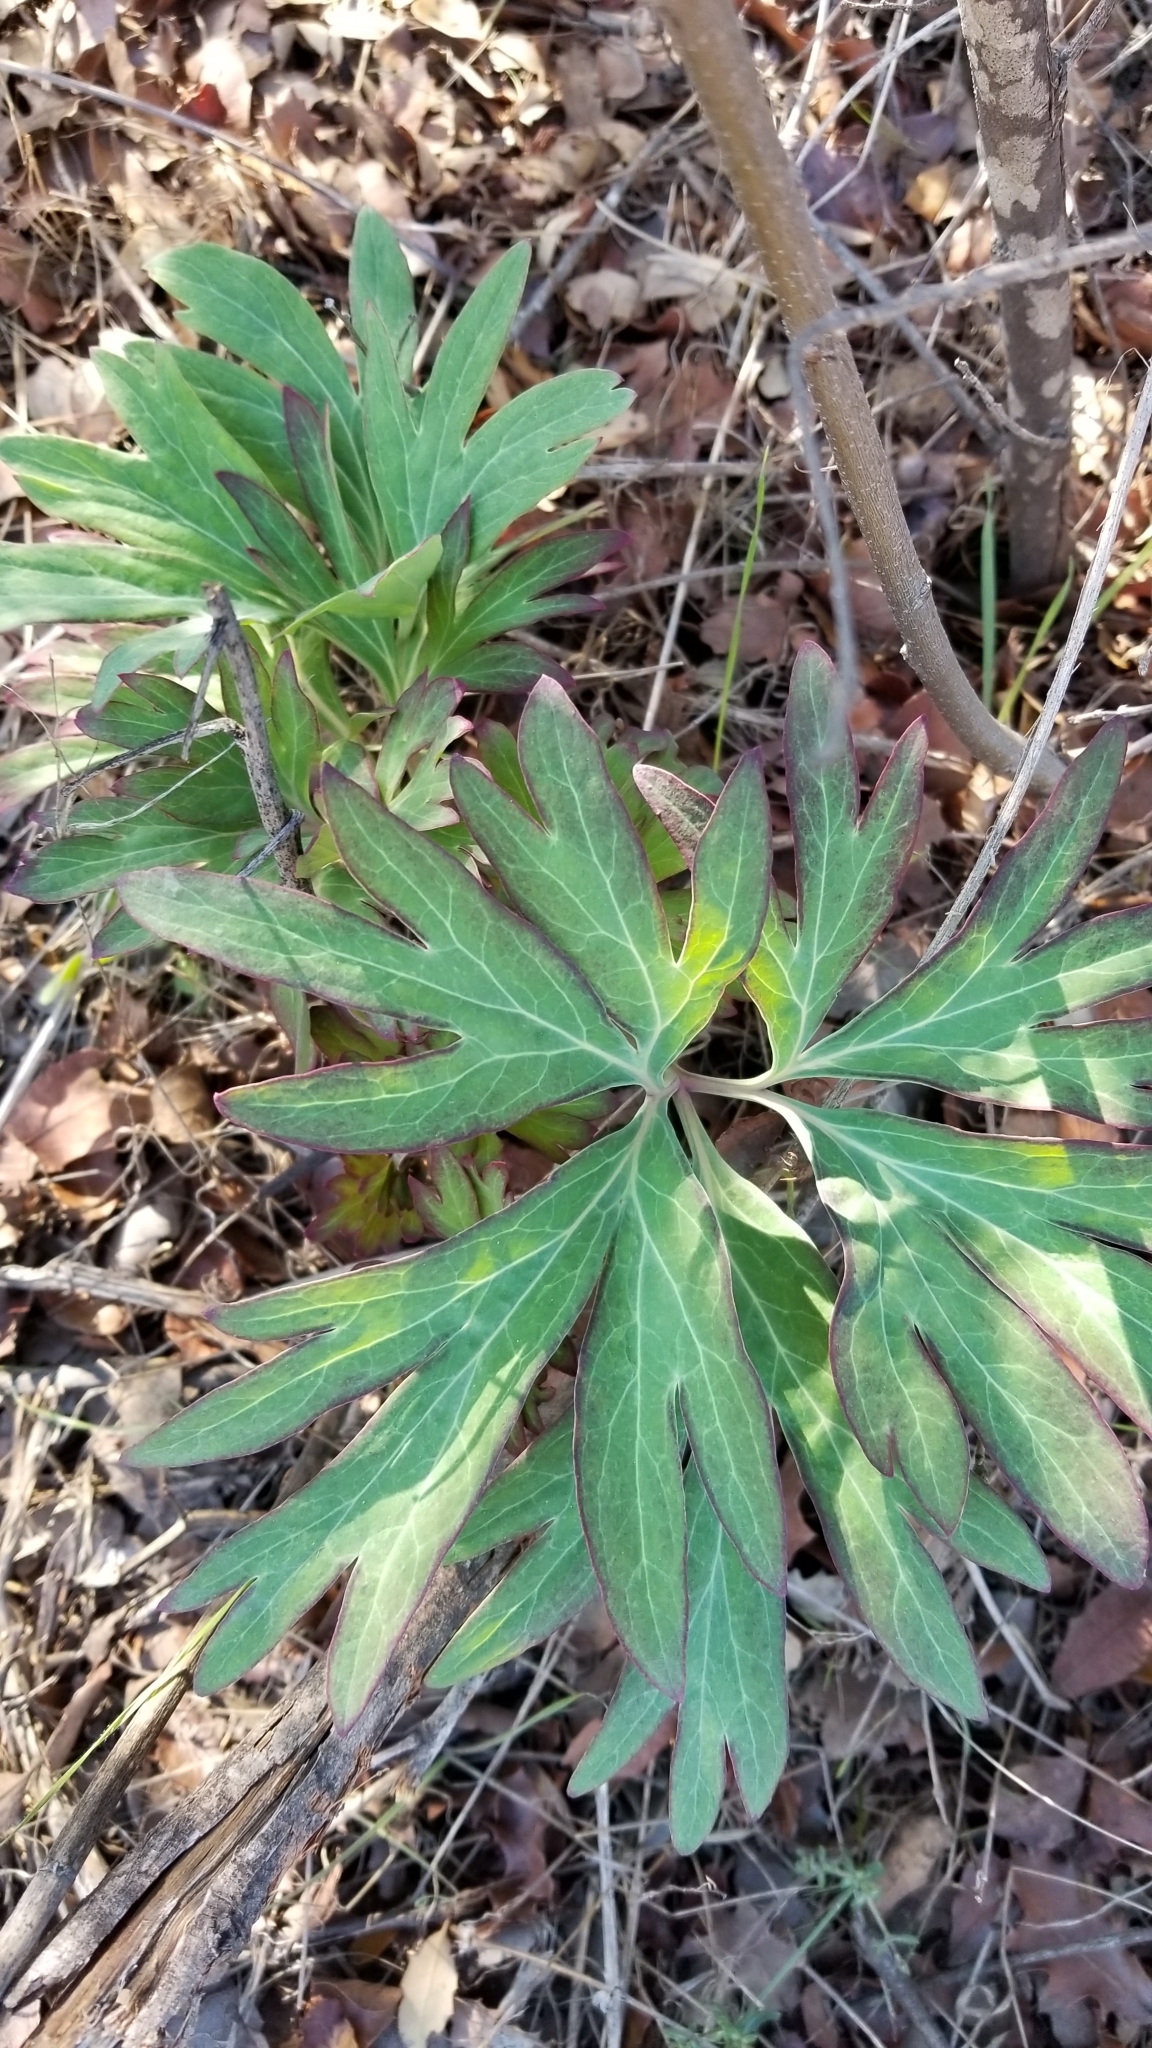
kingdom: Plantae
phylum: Tracheophyta
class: Magnoliopsida
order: Saxifragales
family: Paeoniaceae
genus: Paeonia
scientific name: Paeonia californica
